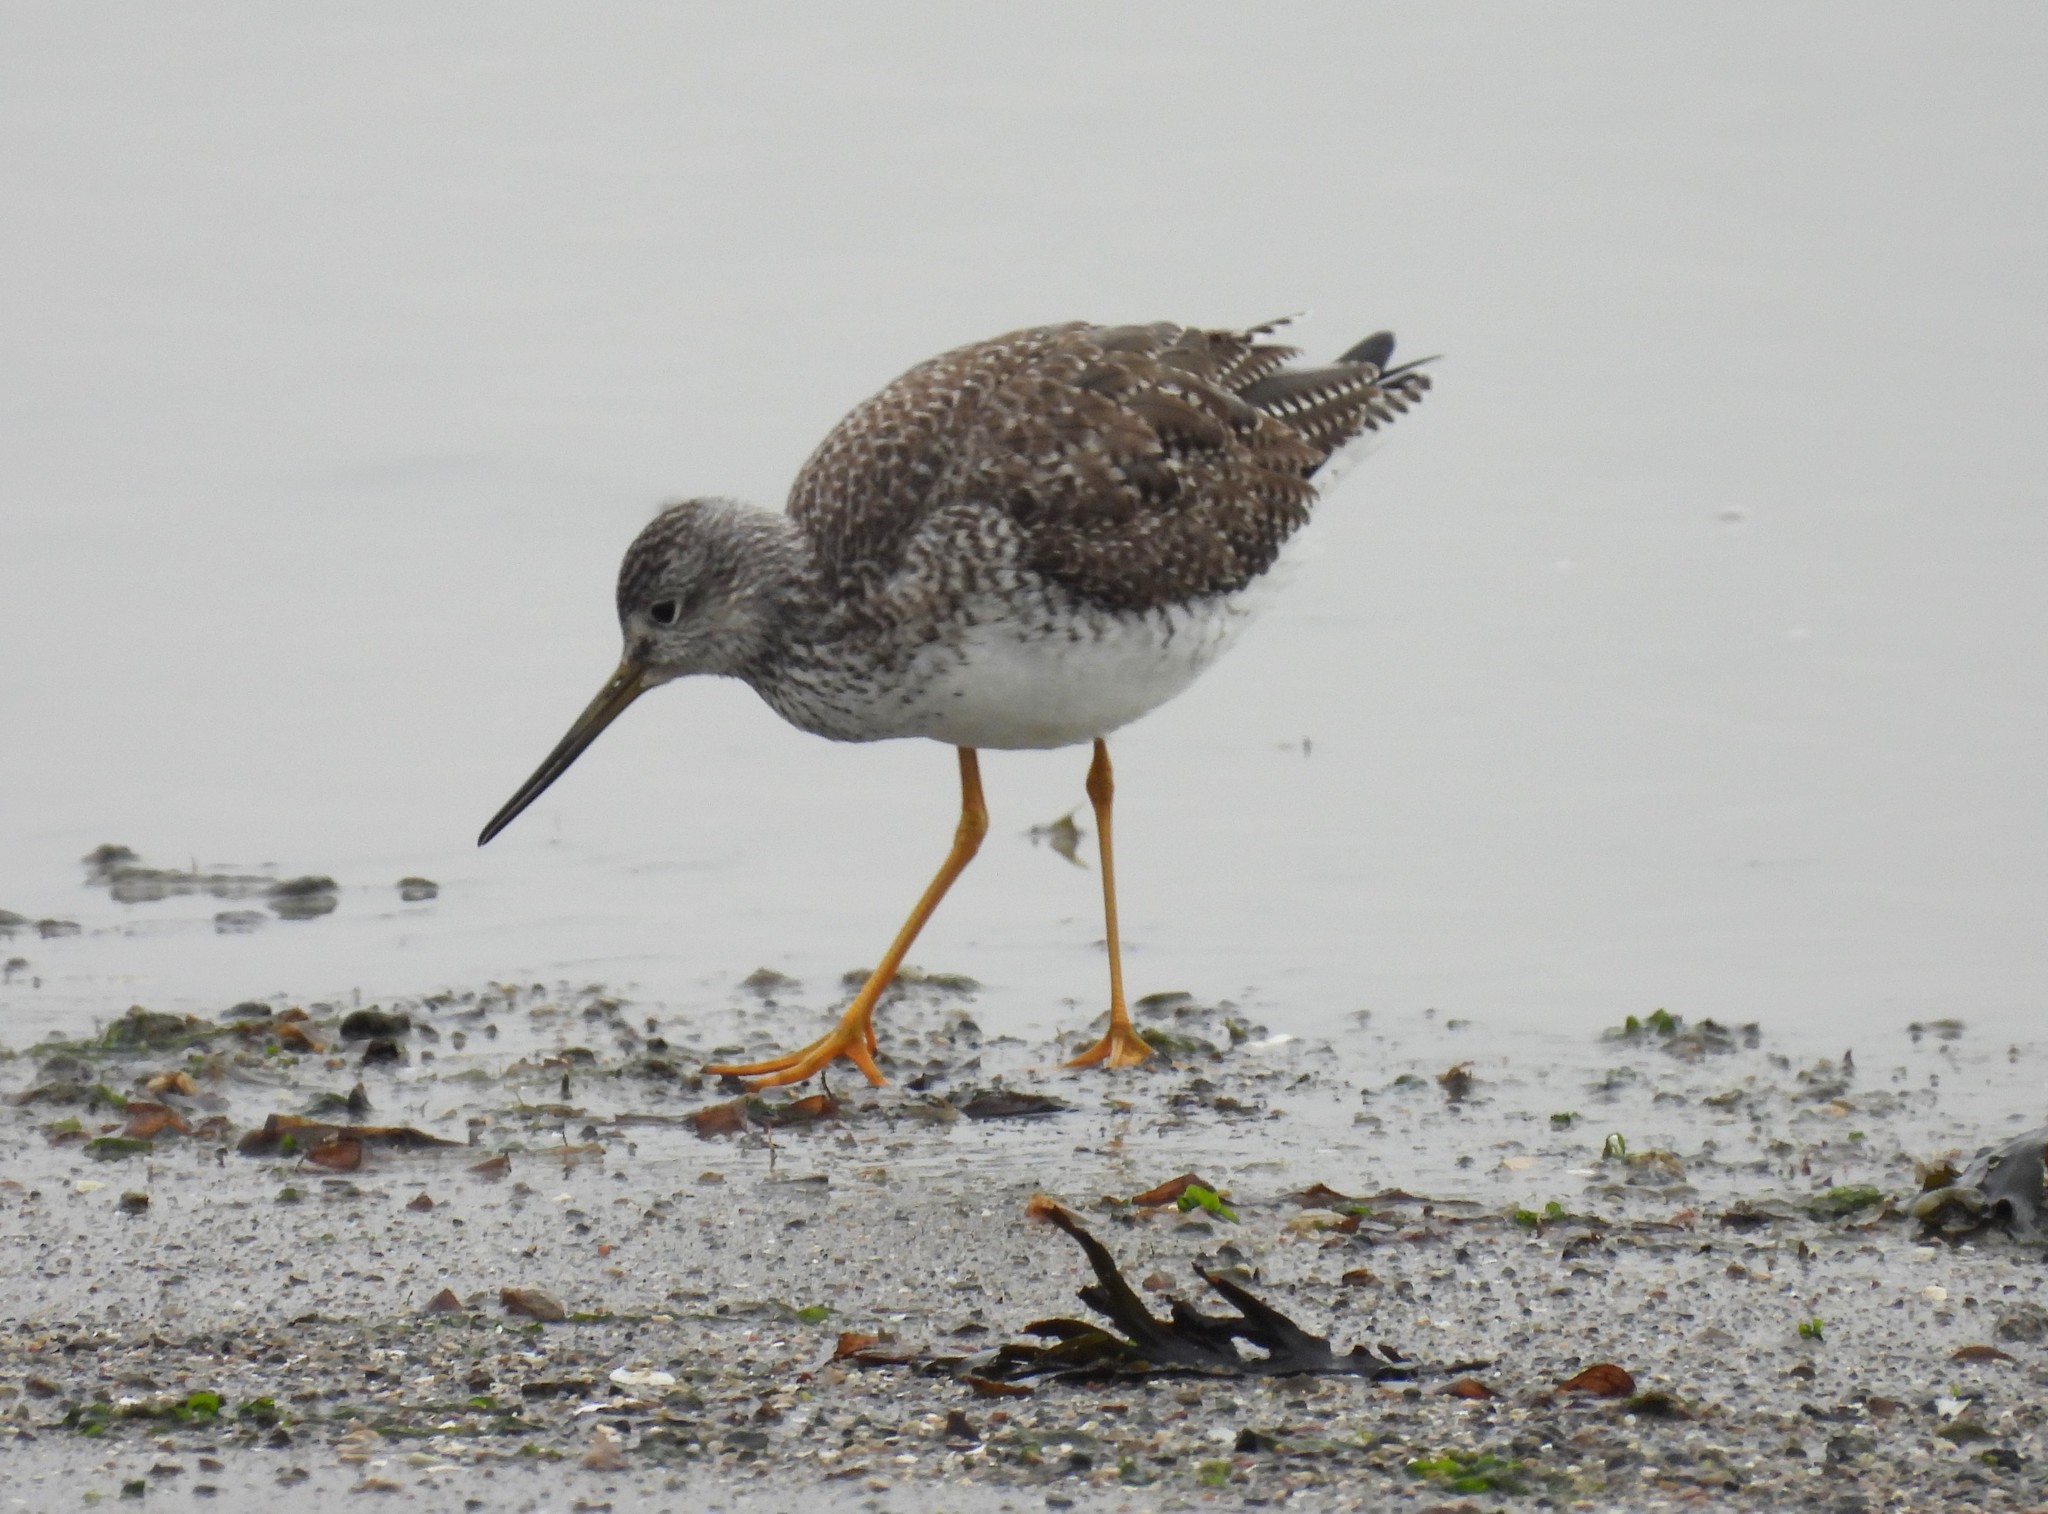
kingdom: Animalia
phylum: Chordata
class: Aves
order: Charadriiformes
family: Scolopacidae
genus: Tringa
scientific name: Tringa melanoleuca
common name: Greater yellowlegs
